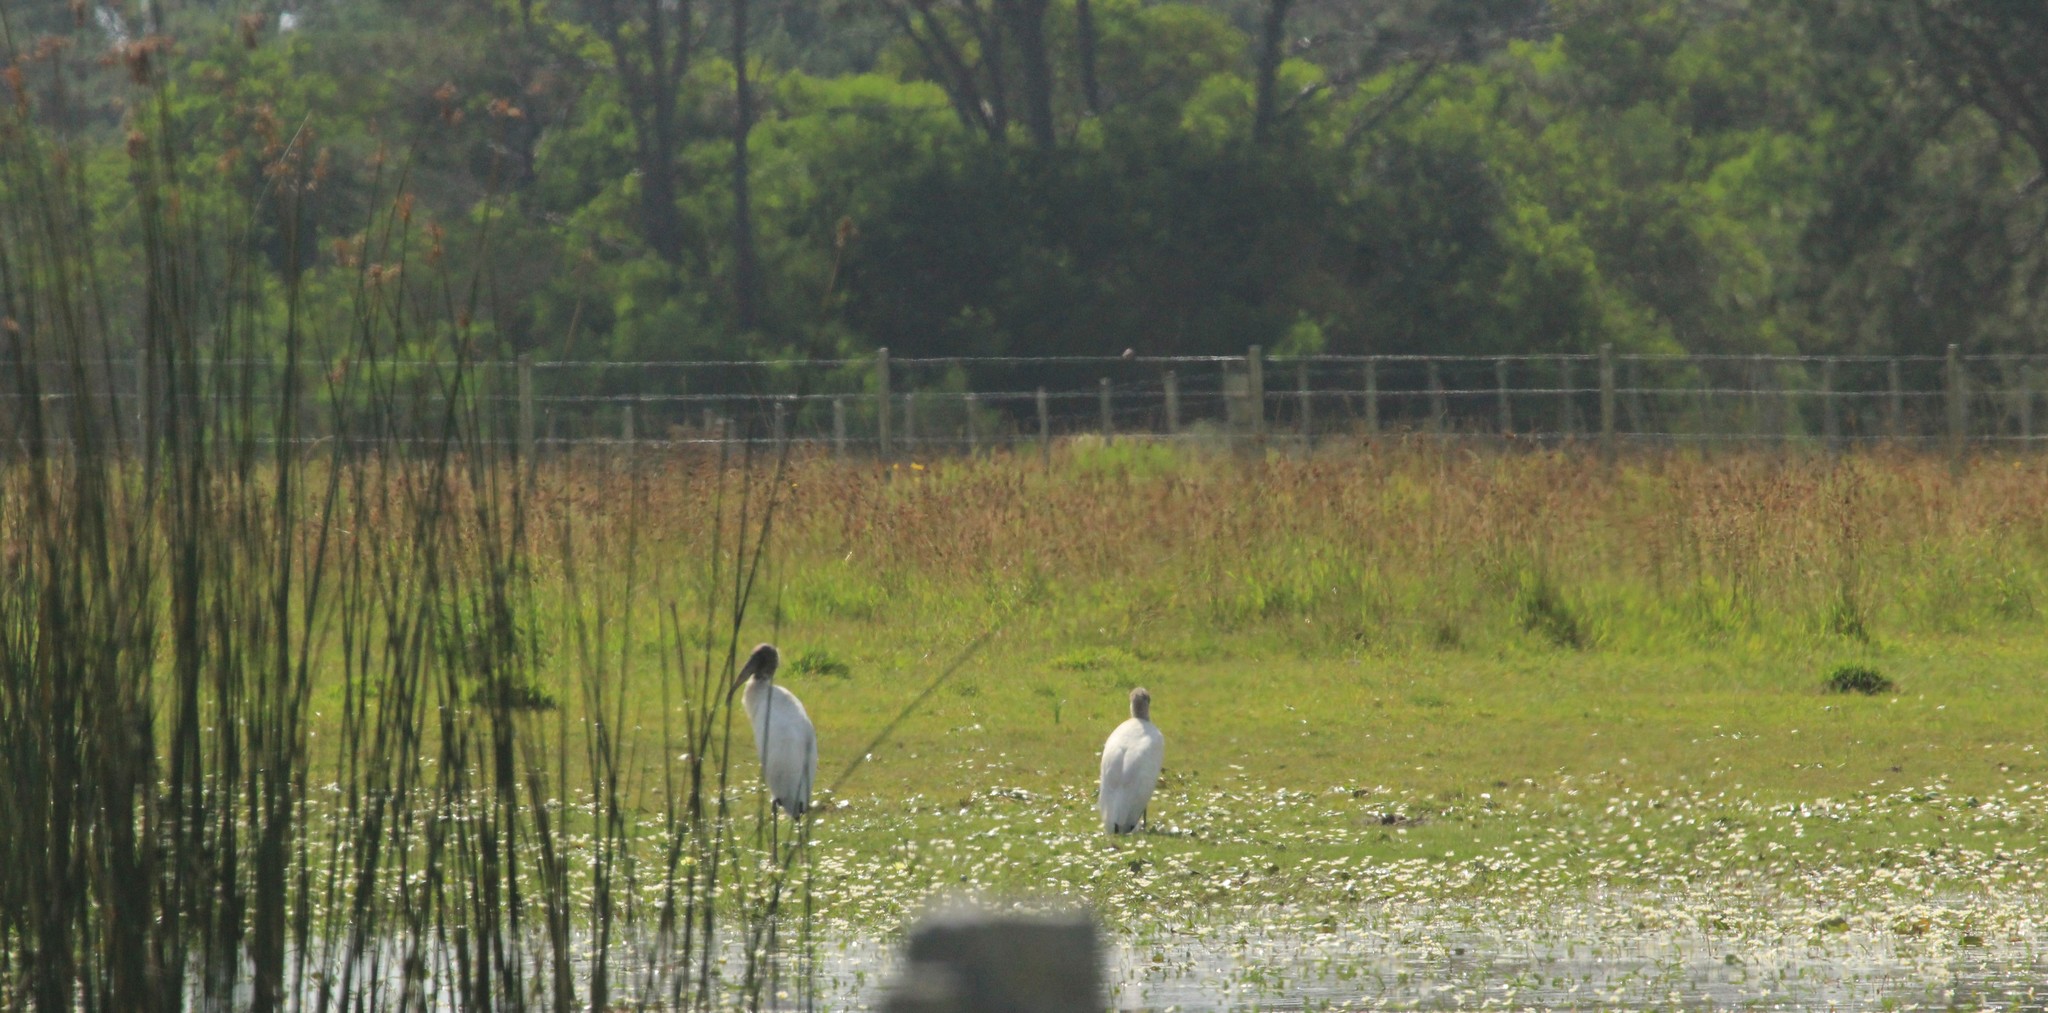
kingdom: Animalia
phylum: Chordata
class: Aves
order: Ciconiiformes
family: Ciconiidae
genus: Mycteria
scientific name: Mycteria americana
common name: Wood stork
